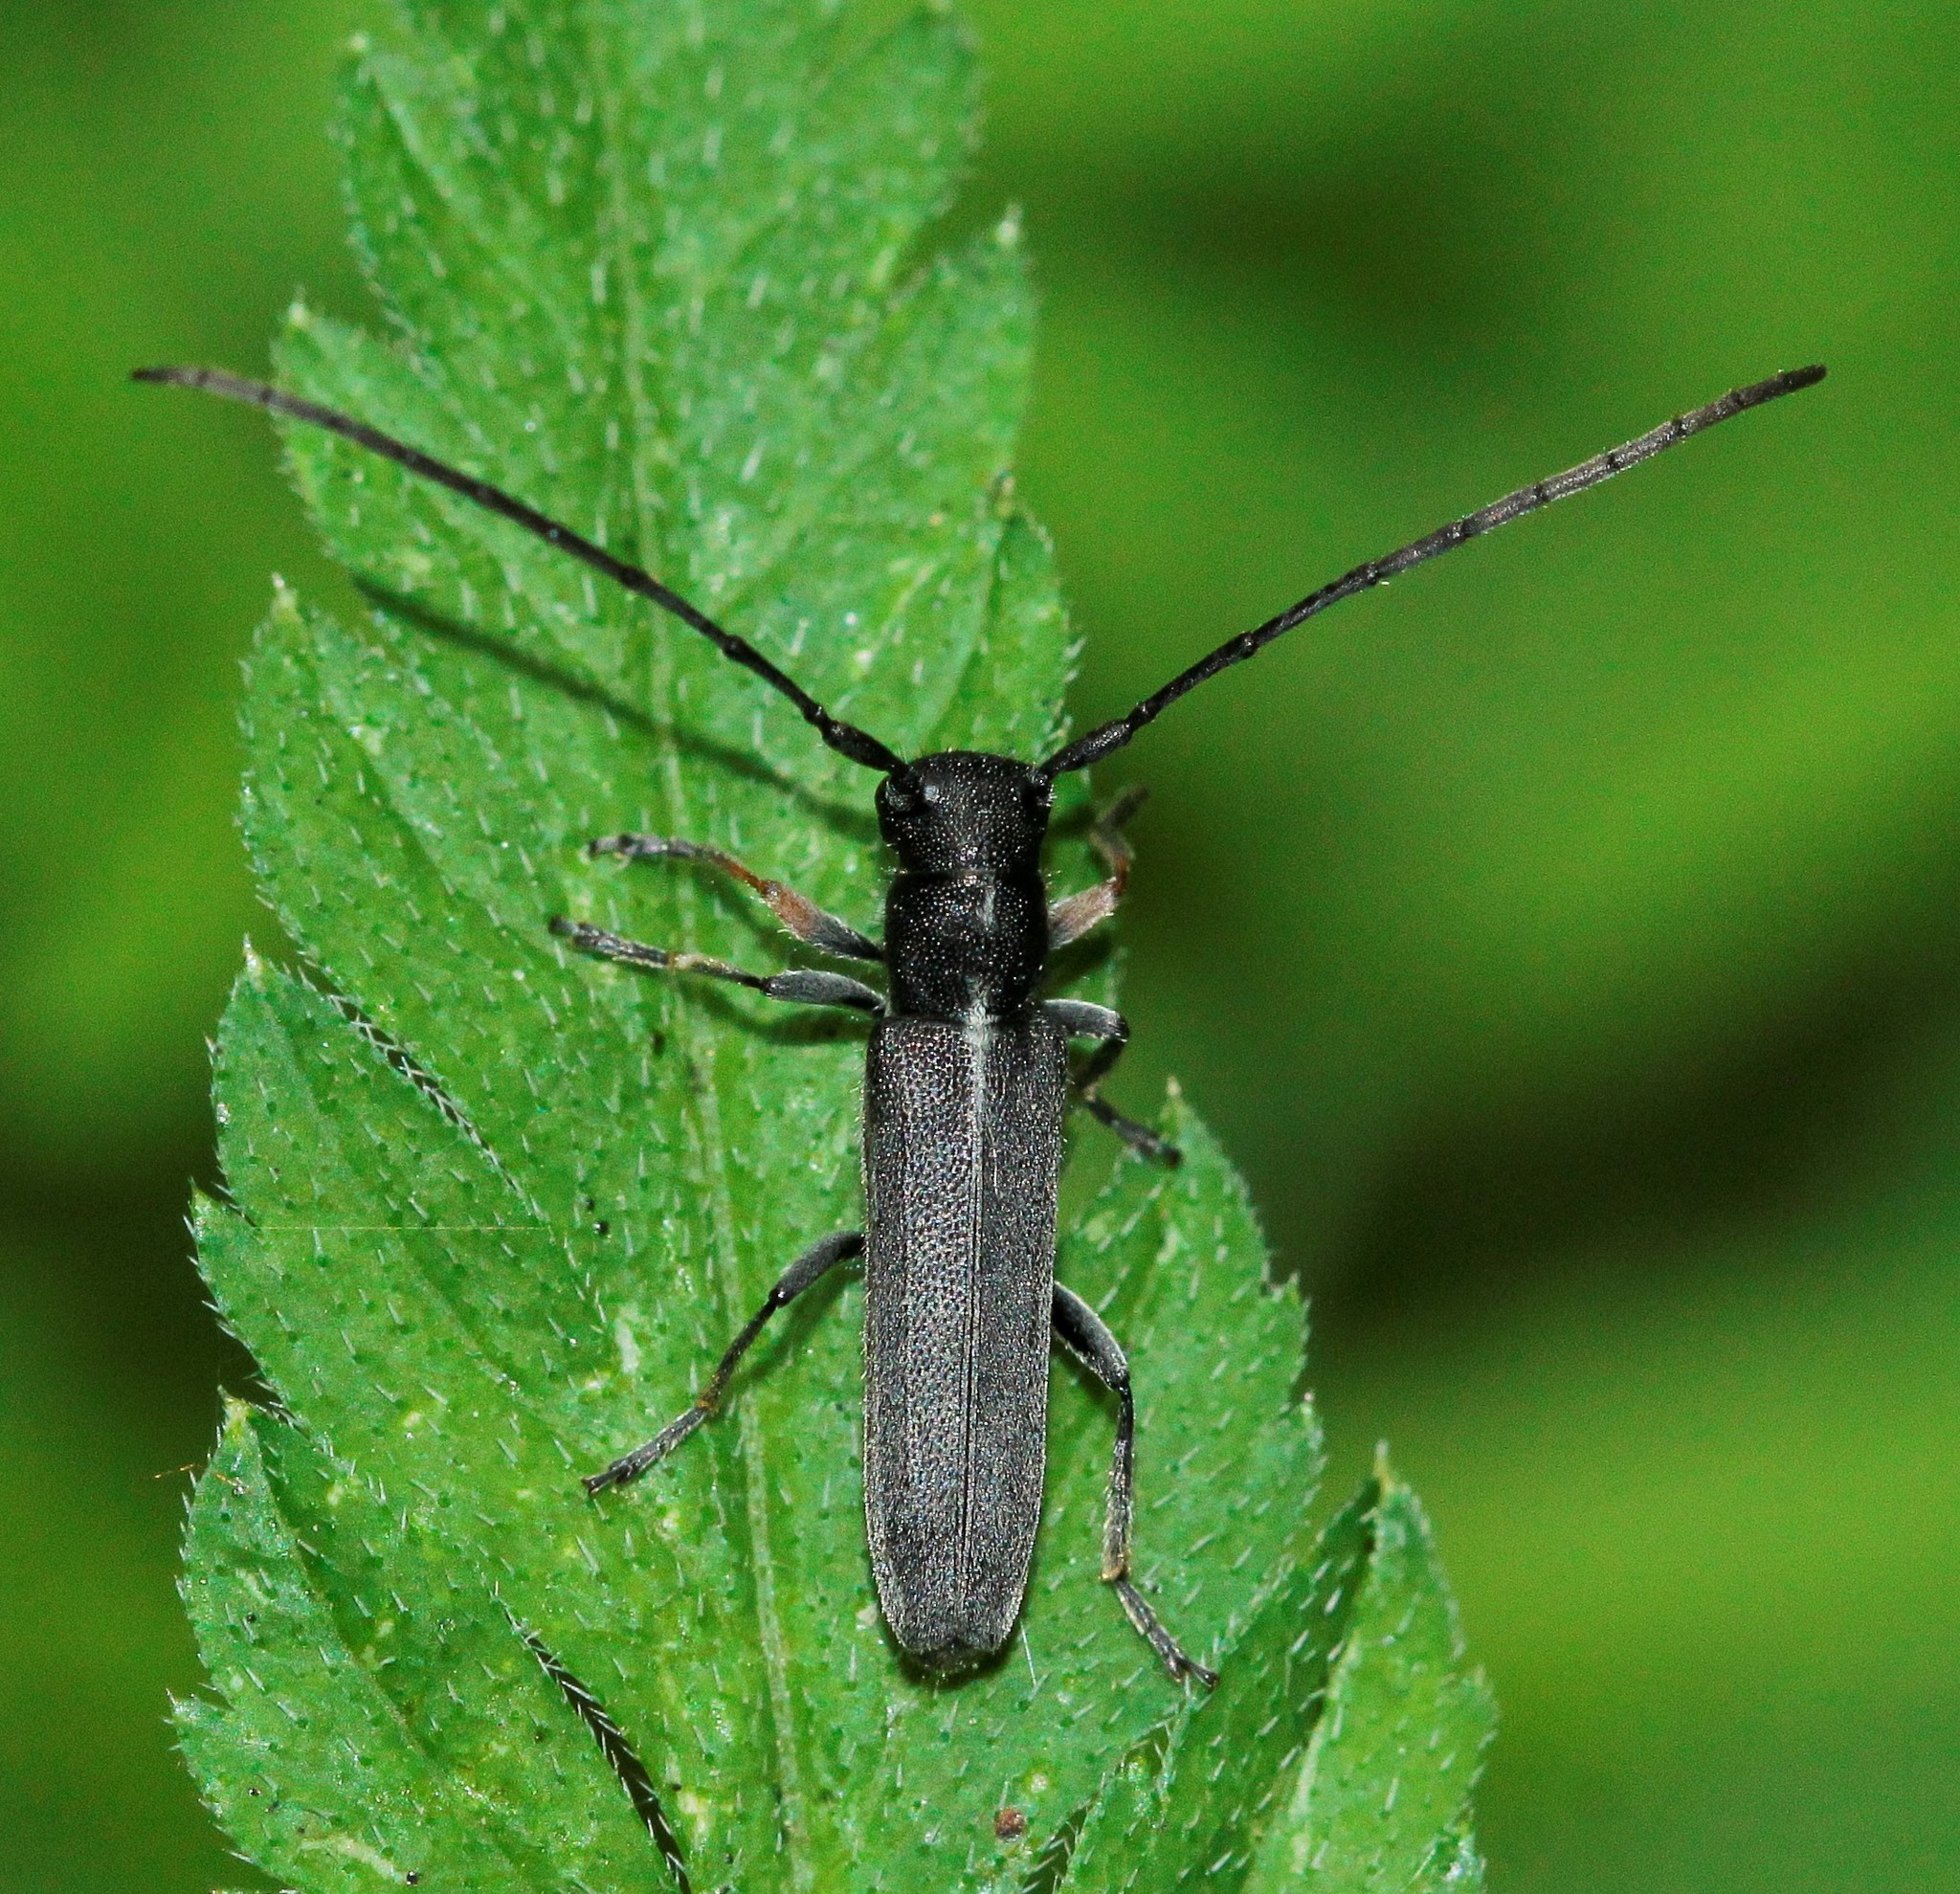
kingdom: Animalia
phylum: Arthropoda
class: Insecta
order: Coleoptera
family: Cerambycidae
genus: Phytoecia
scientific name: Phytoecia cylindrica
